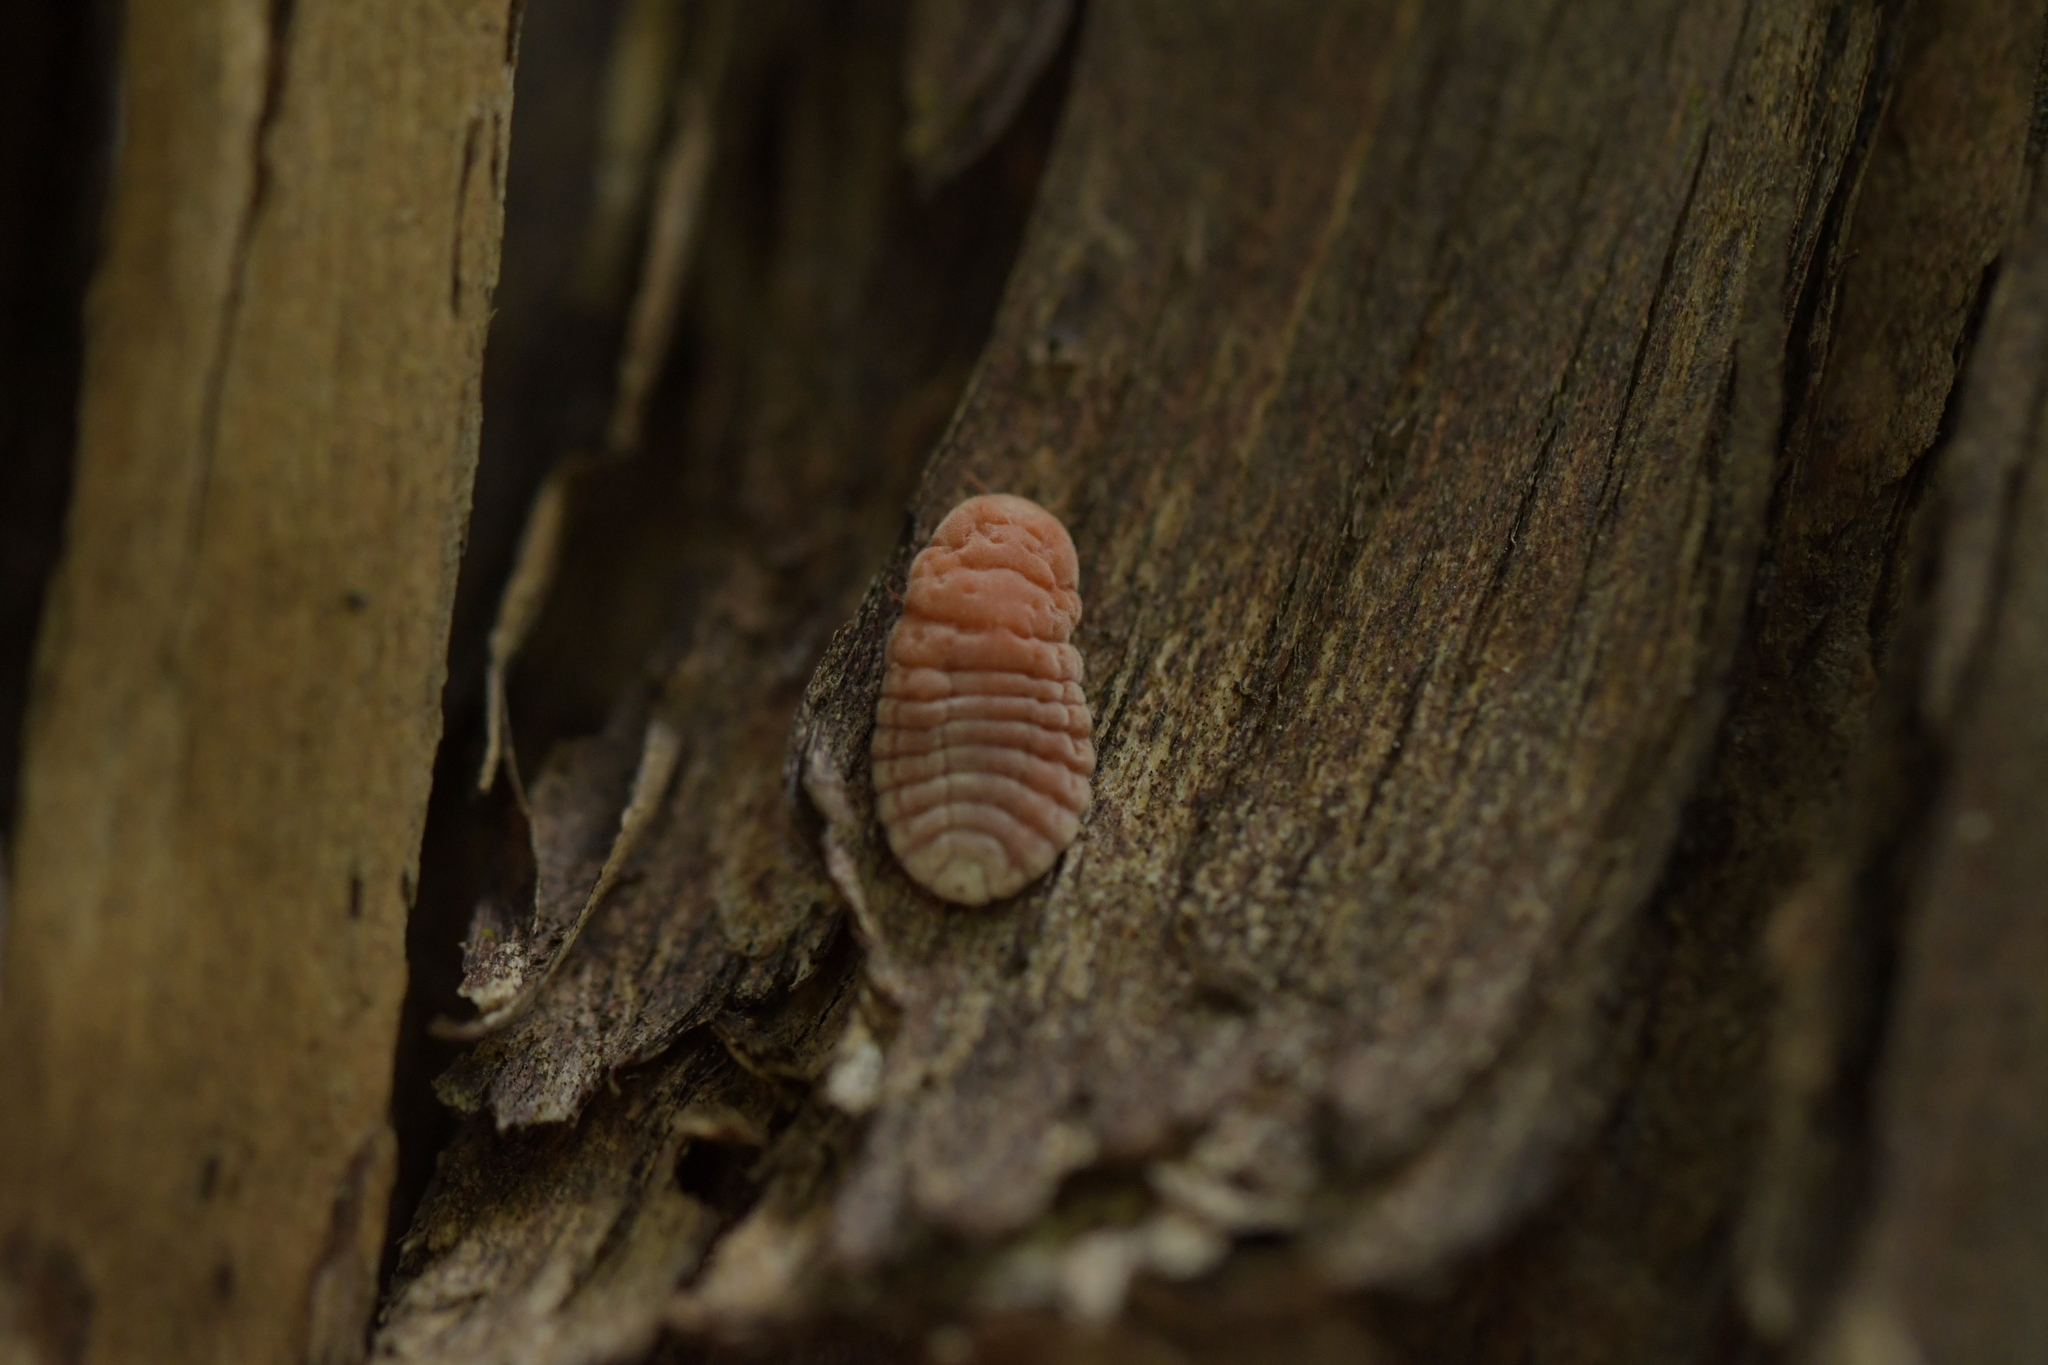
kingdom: Animalia
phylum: Arthropoda
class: Insecta
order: Hemiptera
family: Margarodidae
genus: Coelostomidia
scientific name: Coelostomidia zealandica
